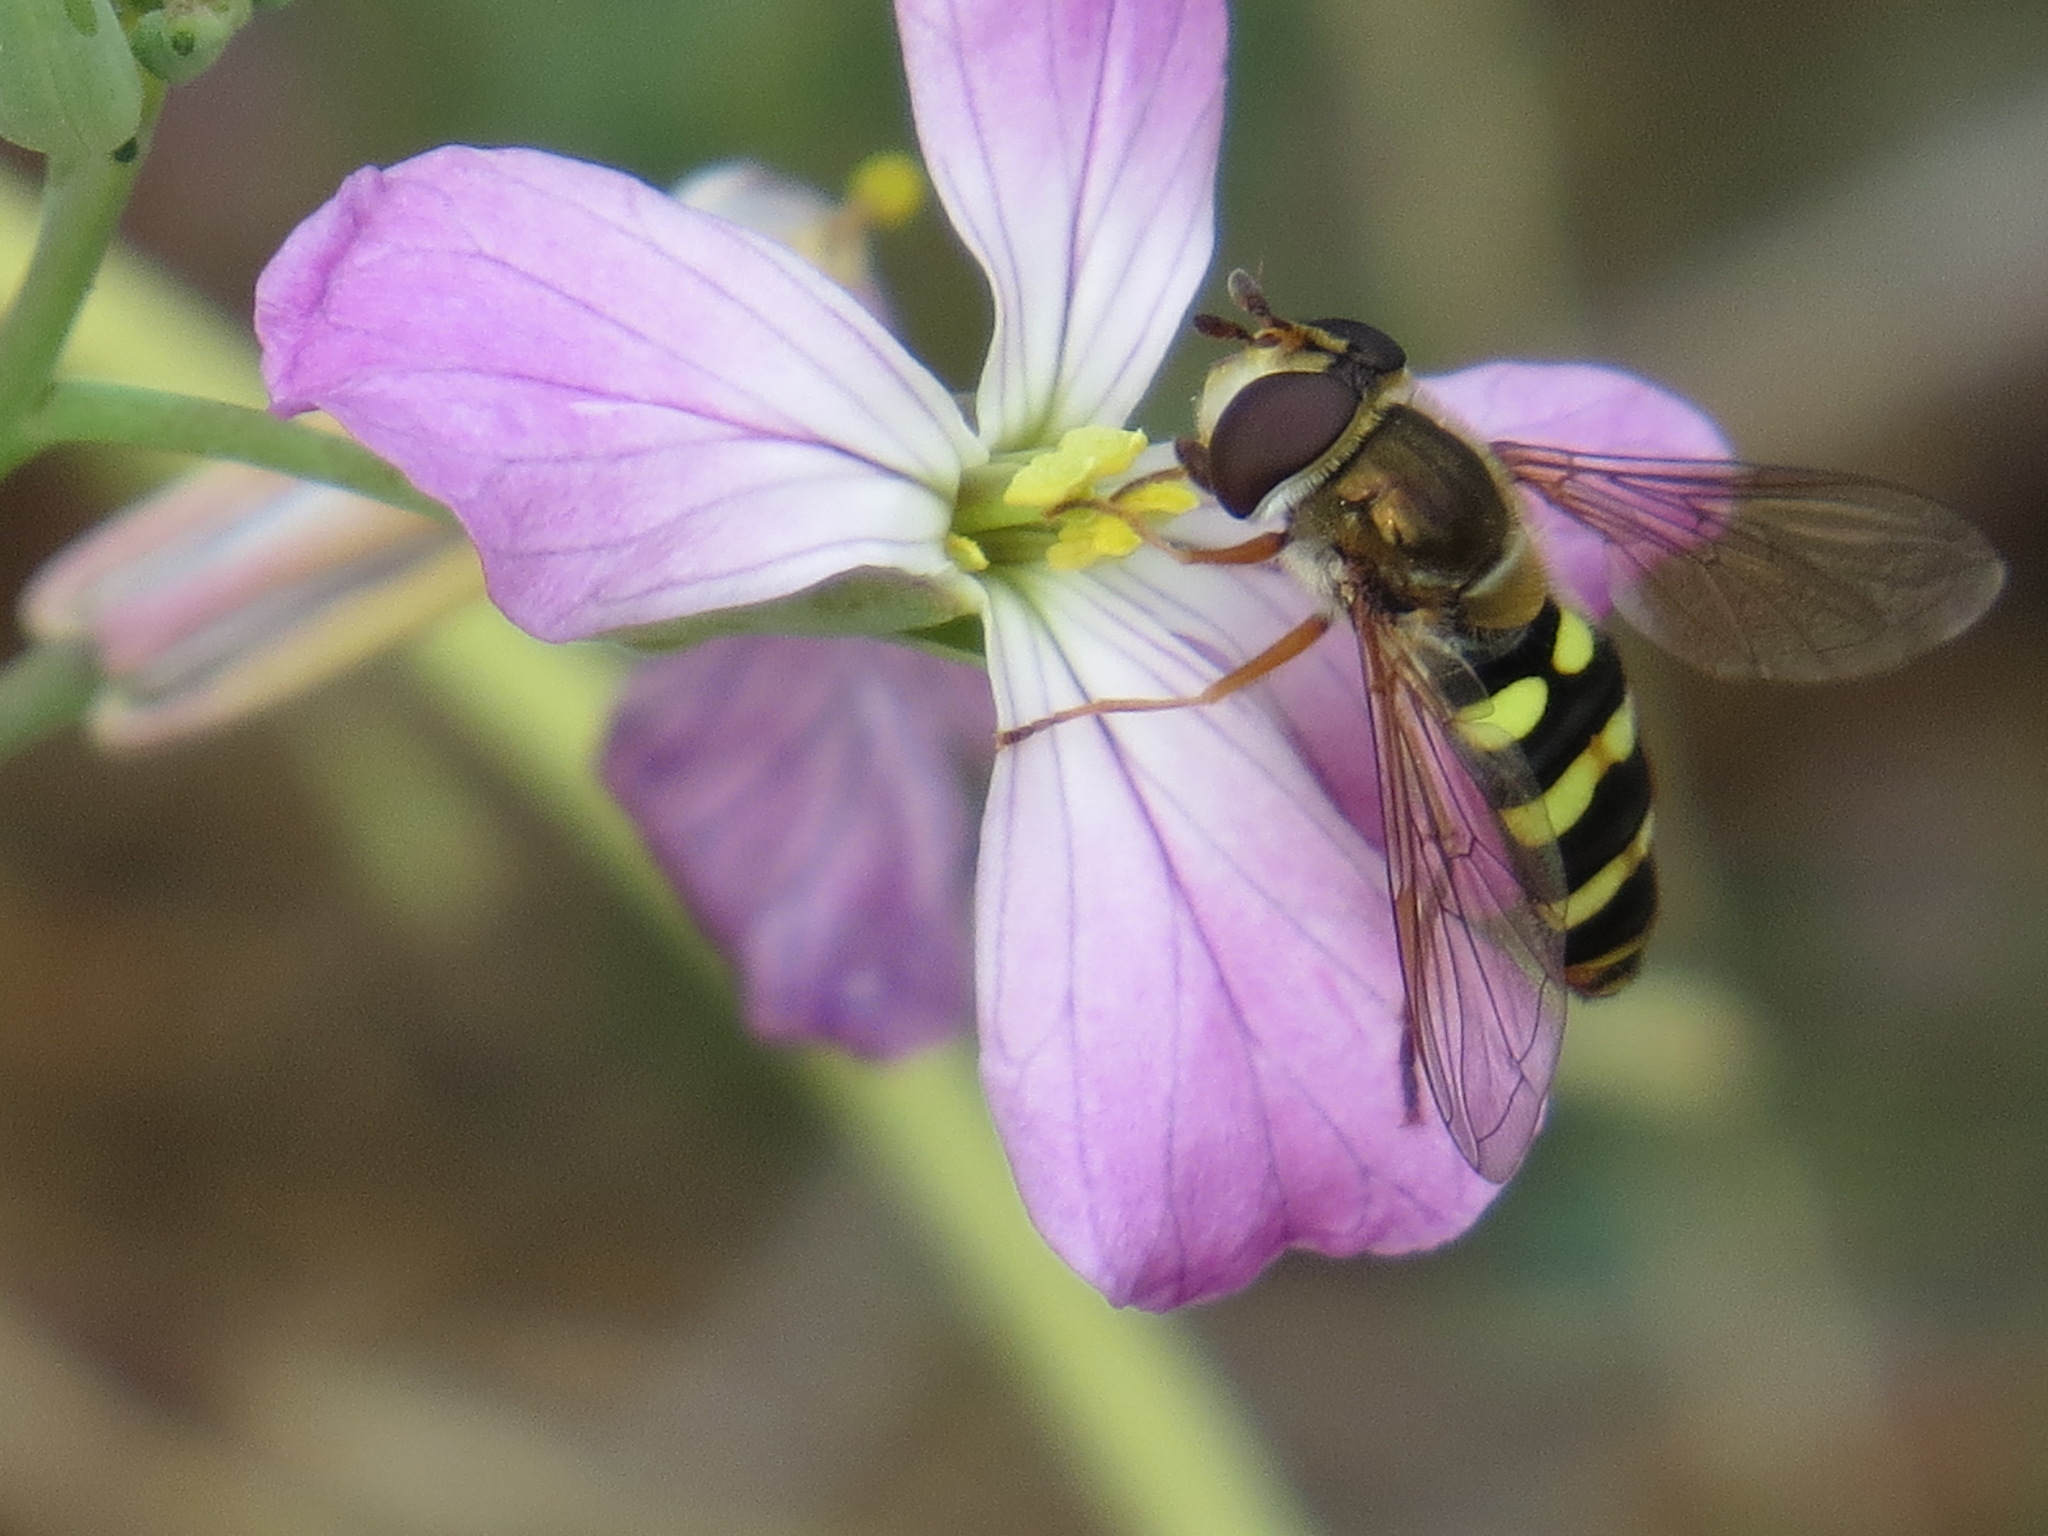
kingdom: Animalia
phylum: Arthropoda
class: Insecta
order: Diptera
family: Syrphidae
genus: Eupeodes
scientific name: Eupeodes fumipennis
